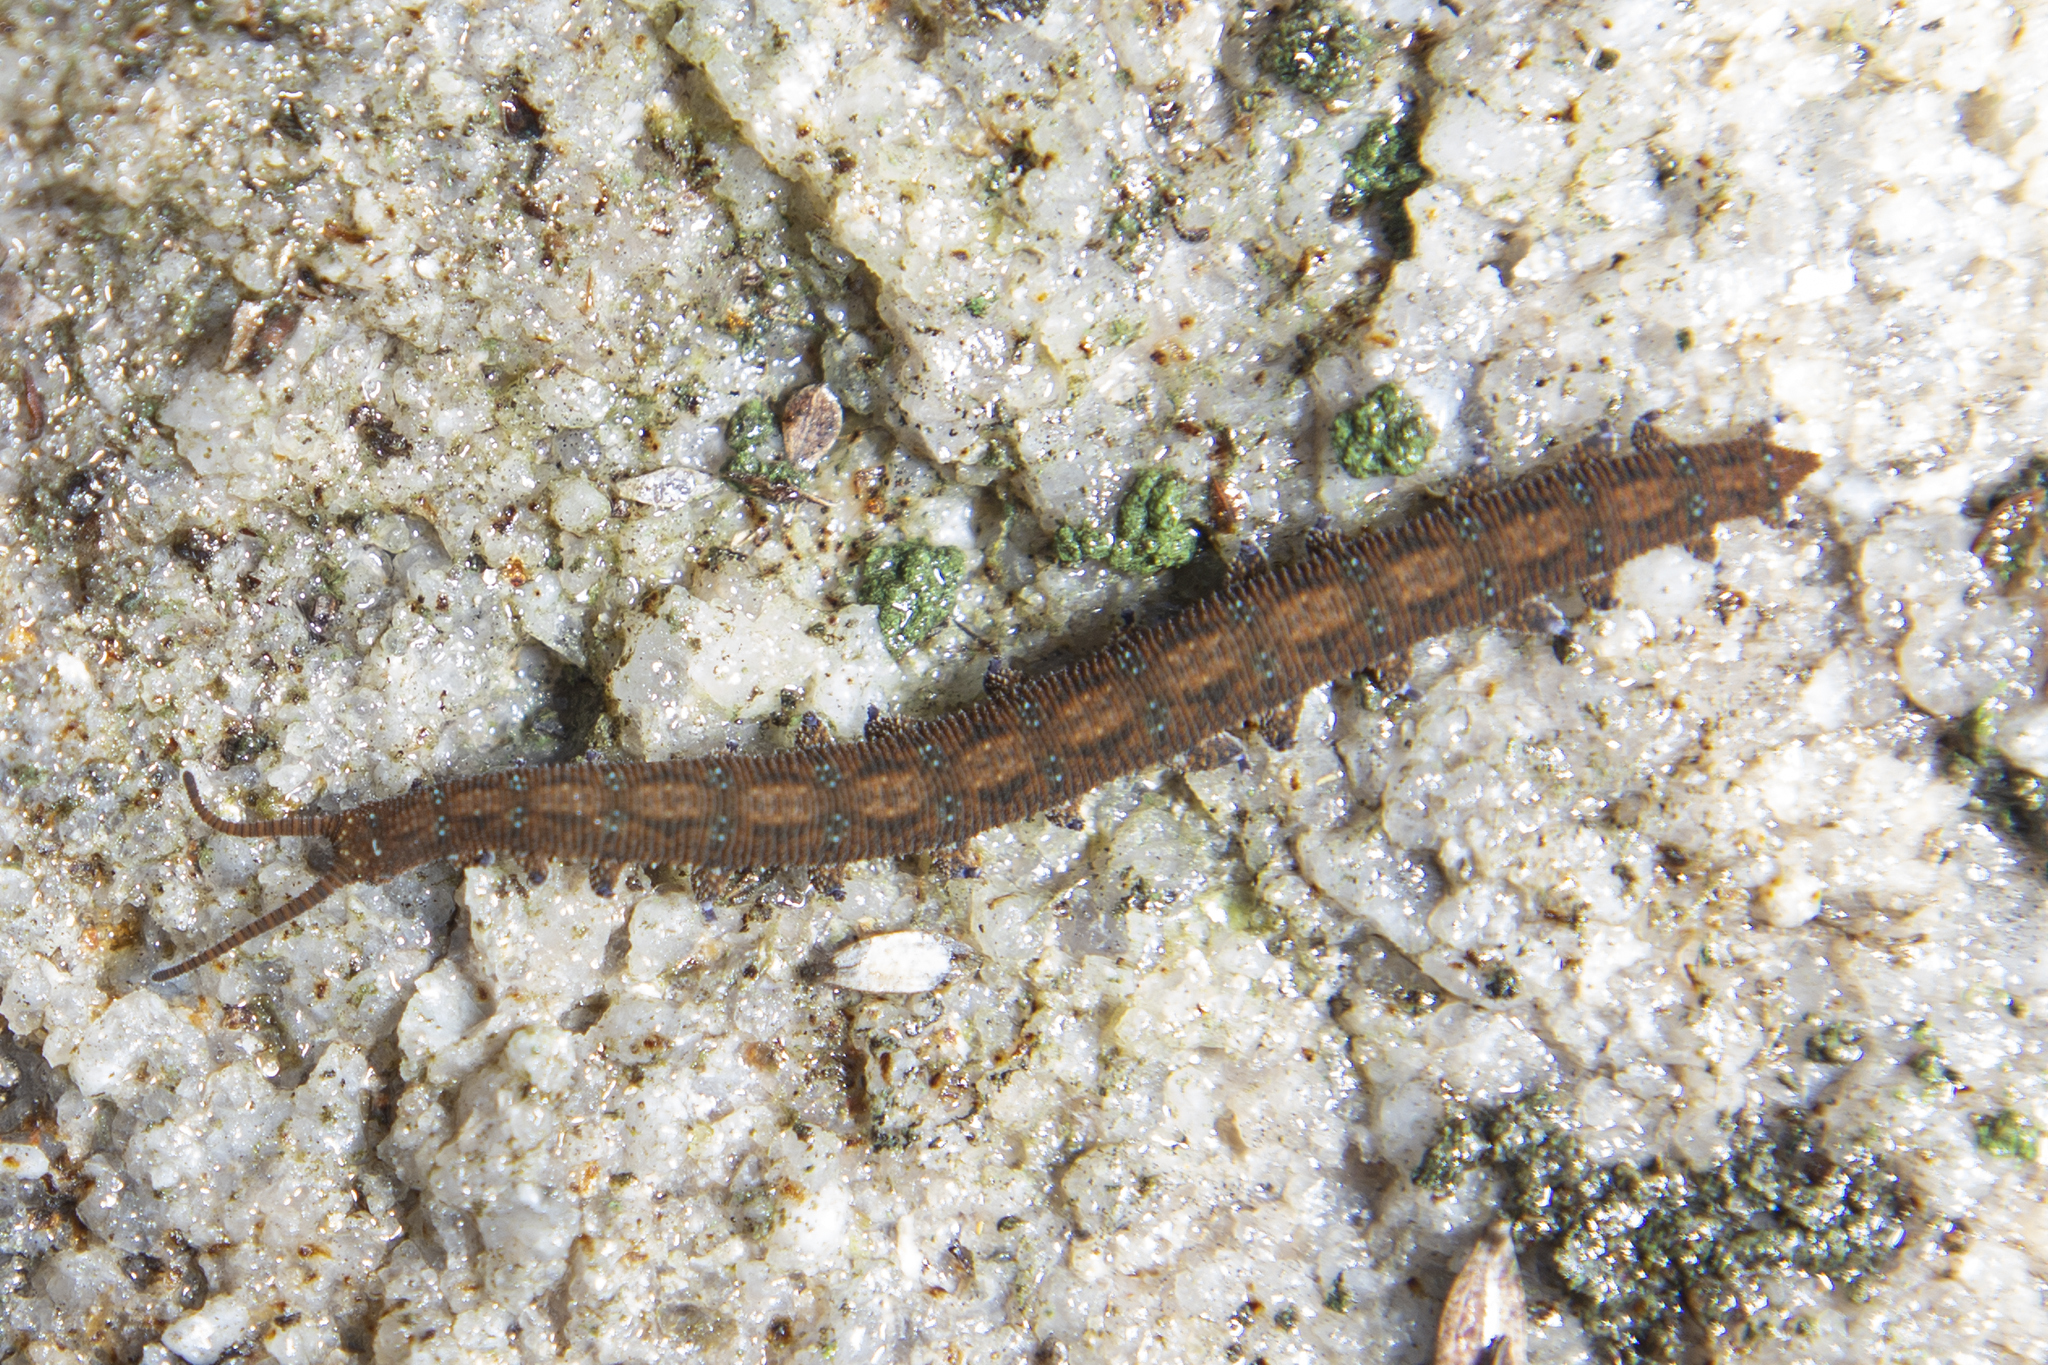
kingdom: Animalia
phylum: Onychophora
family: Peripatopsidae
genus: Ooperipatellus
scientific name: Ooperipatellus viridimaculatus
